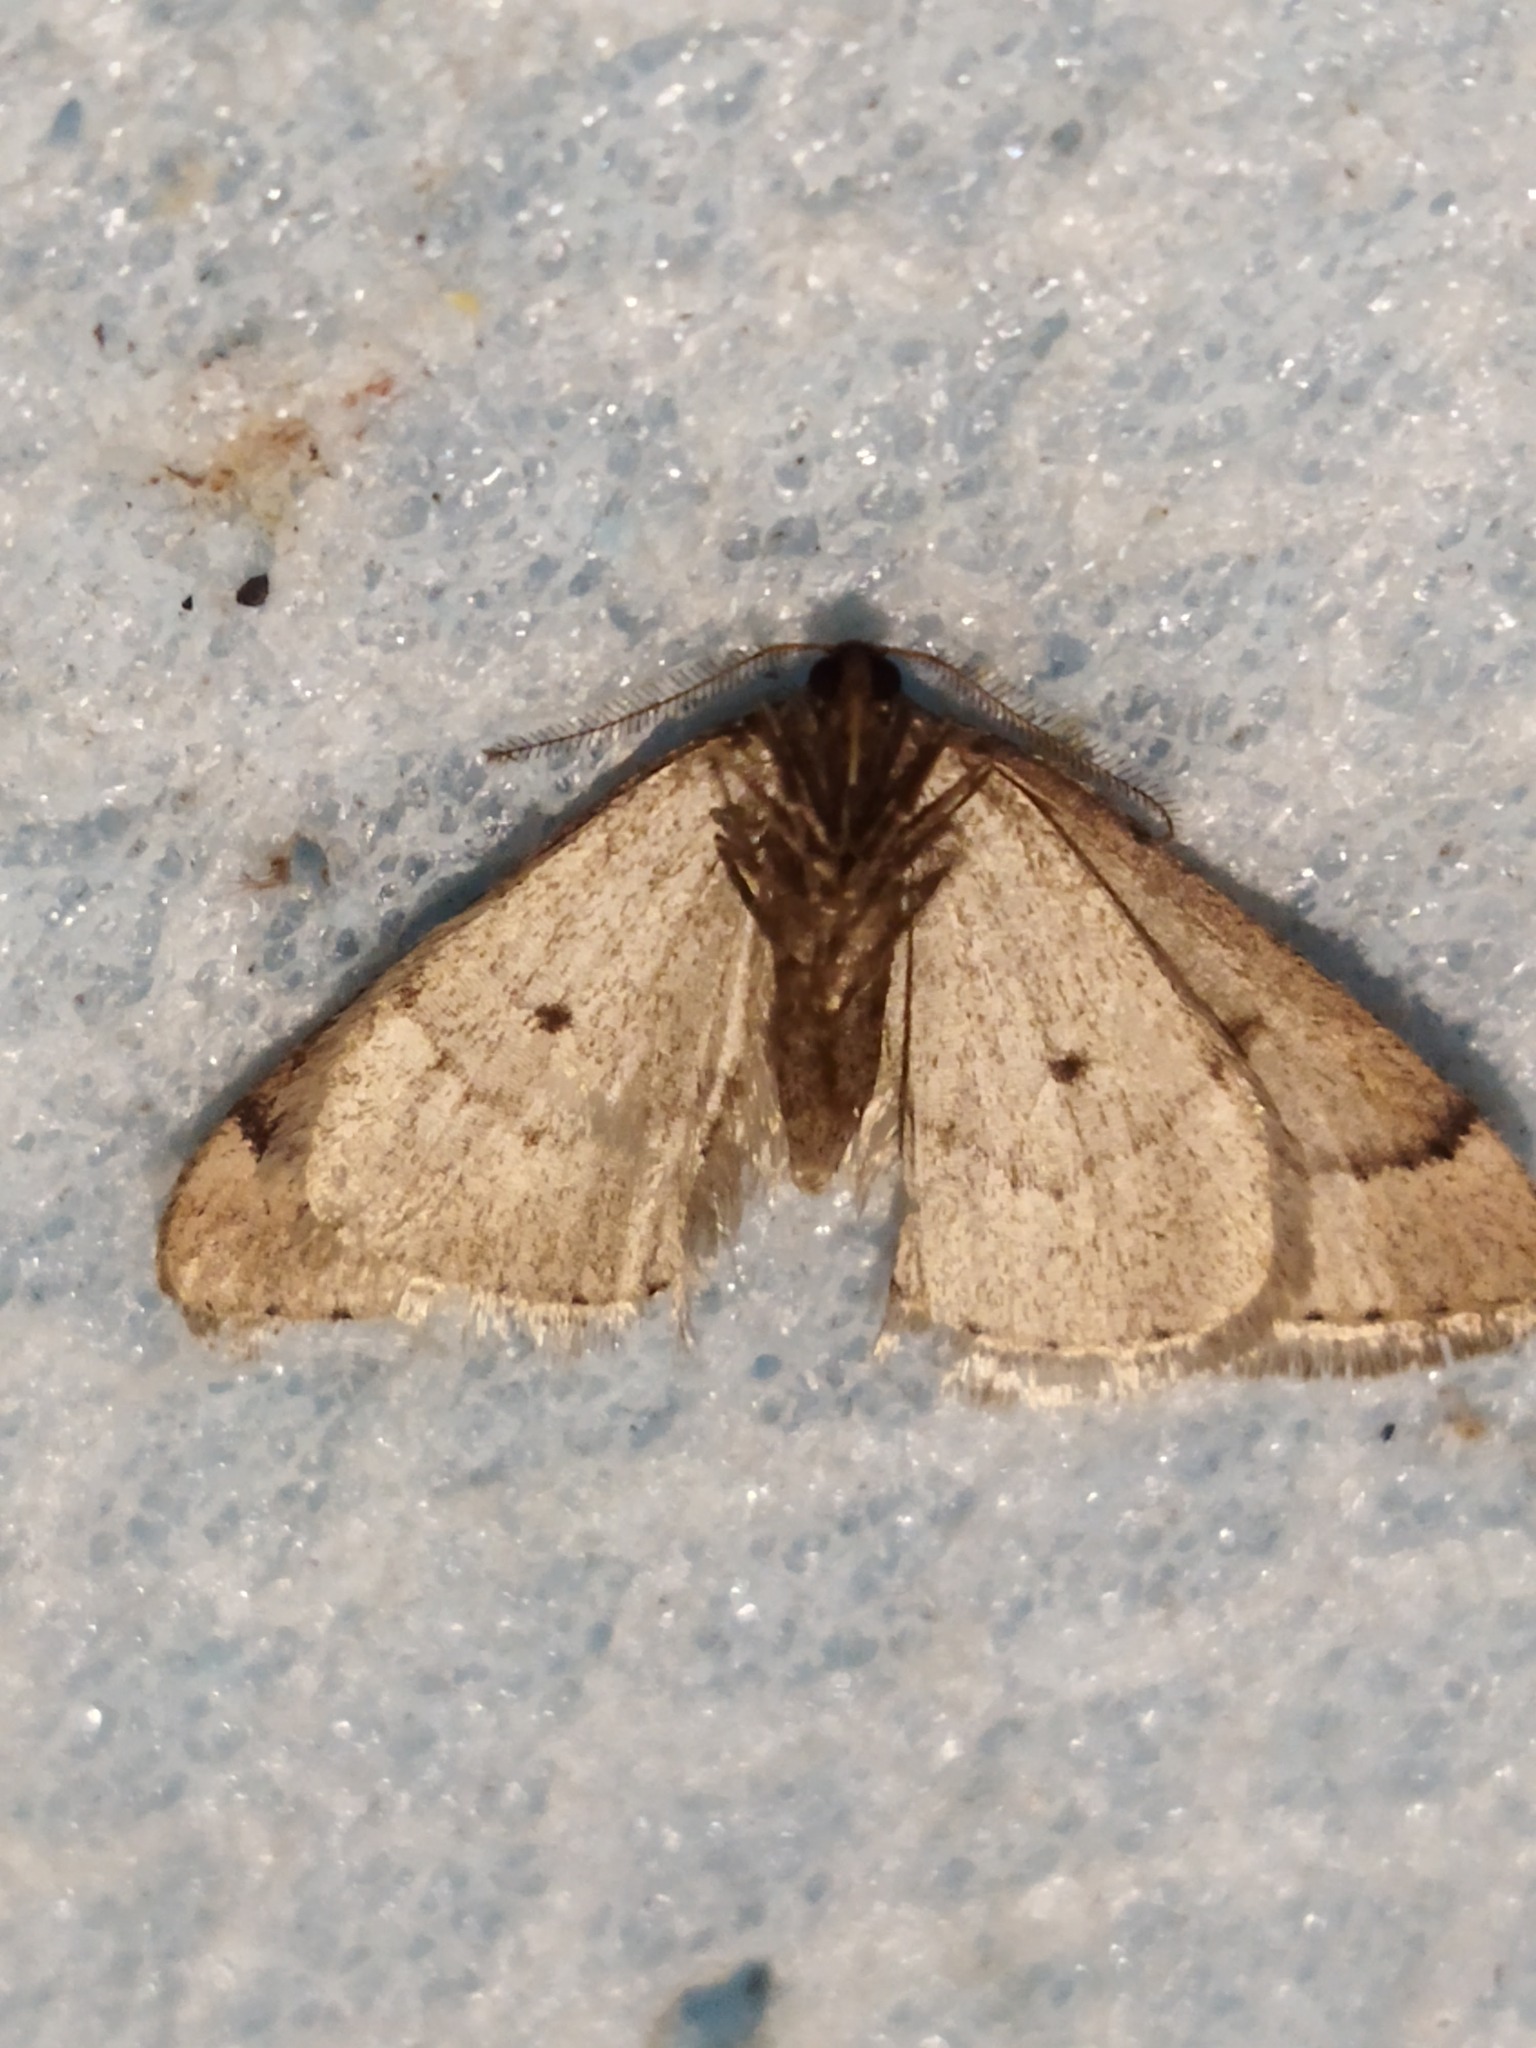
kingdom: Animalia
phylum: Arthropoda
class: Insecta
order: Lepidoptera
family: Geometridae
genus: Theria
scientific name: Theria rupicapraria
